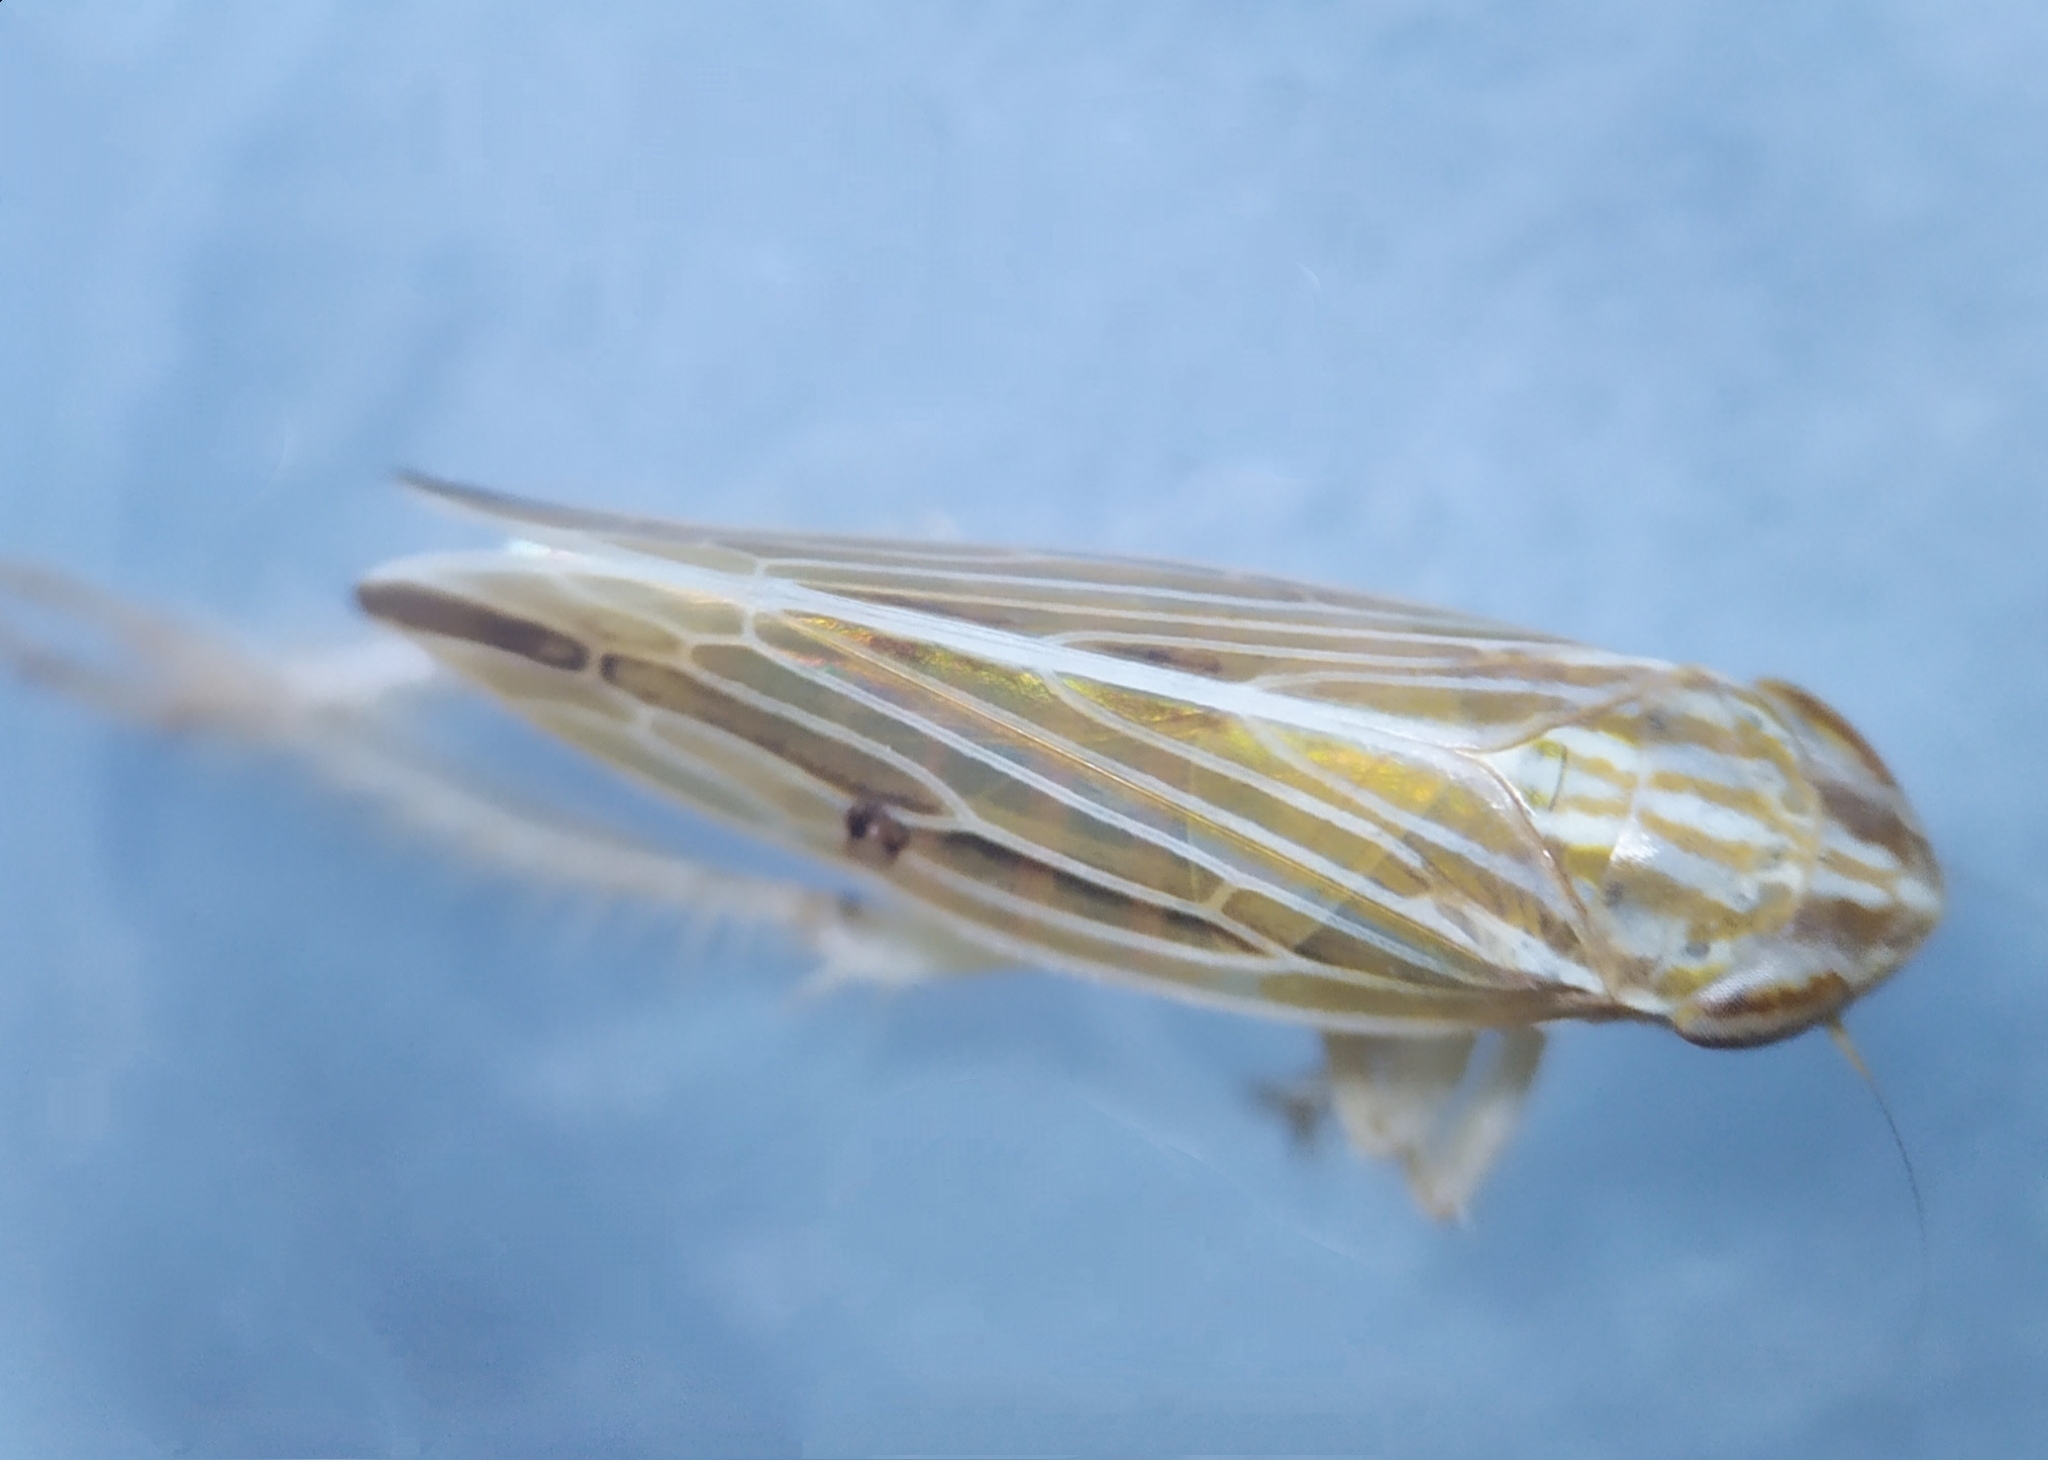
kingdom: Animalia
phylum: Arthropoda
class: Insecta
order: Hemiptera
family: Cicadellidae
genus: Mocydia
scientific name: Mocydia crocea
